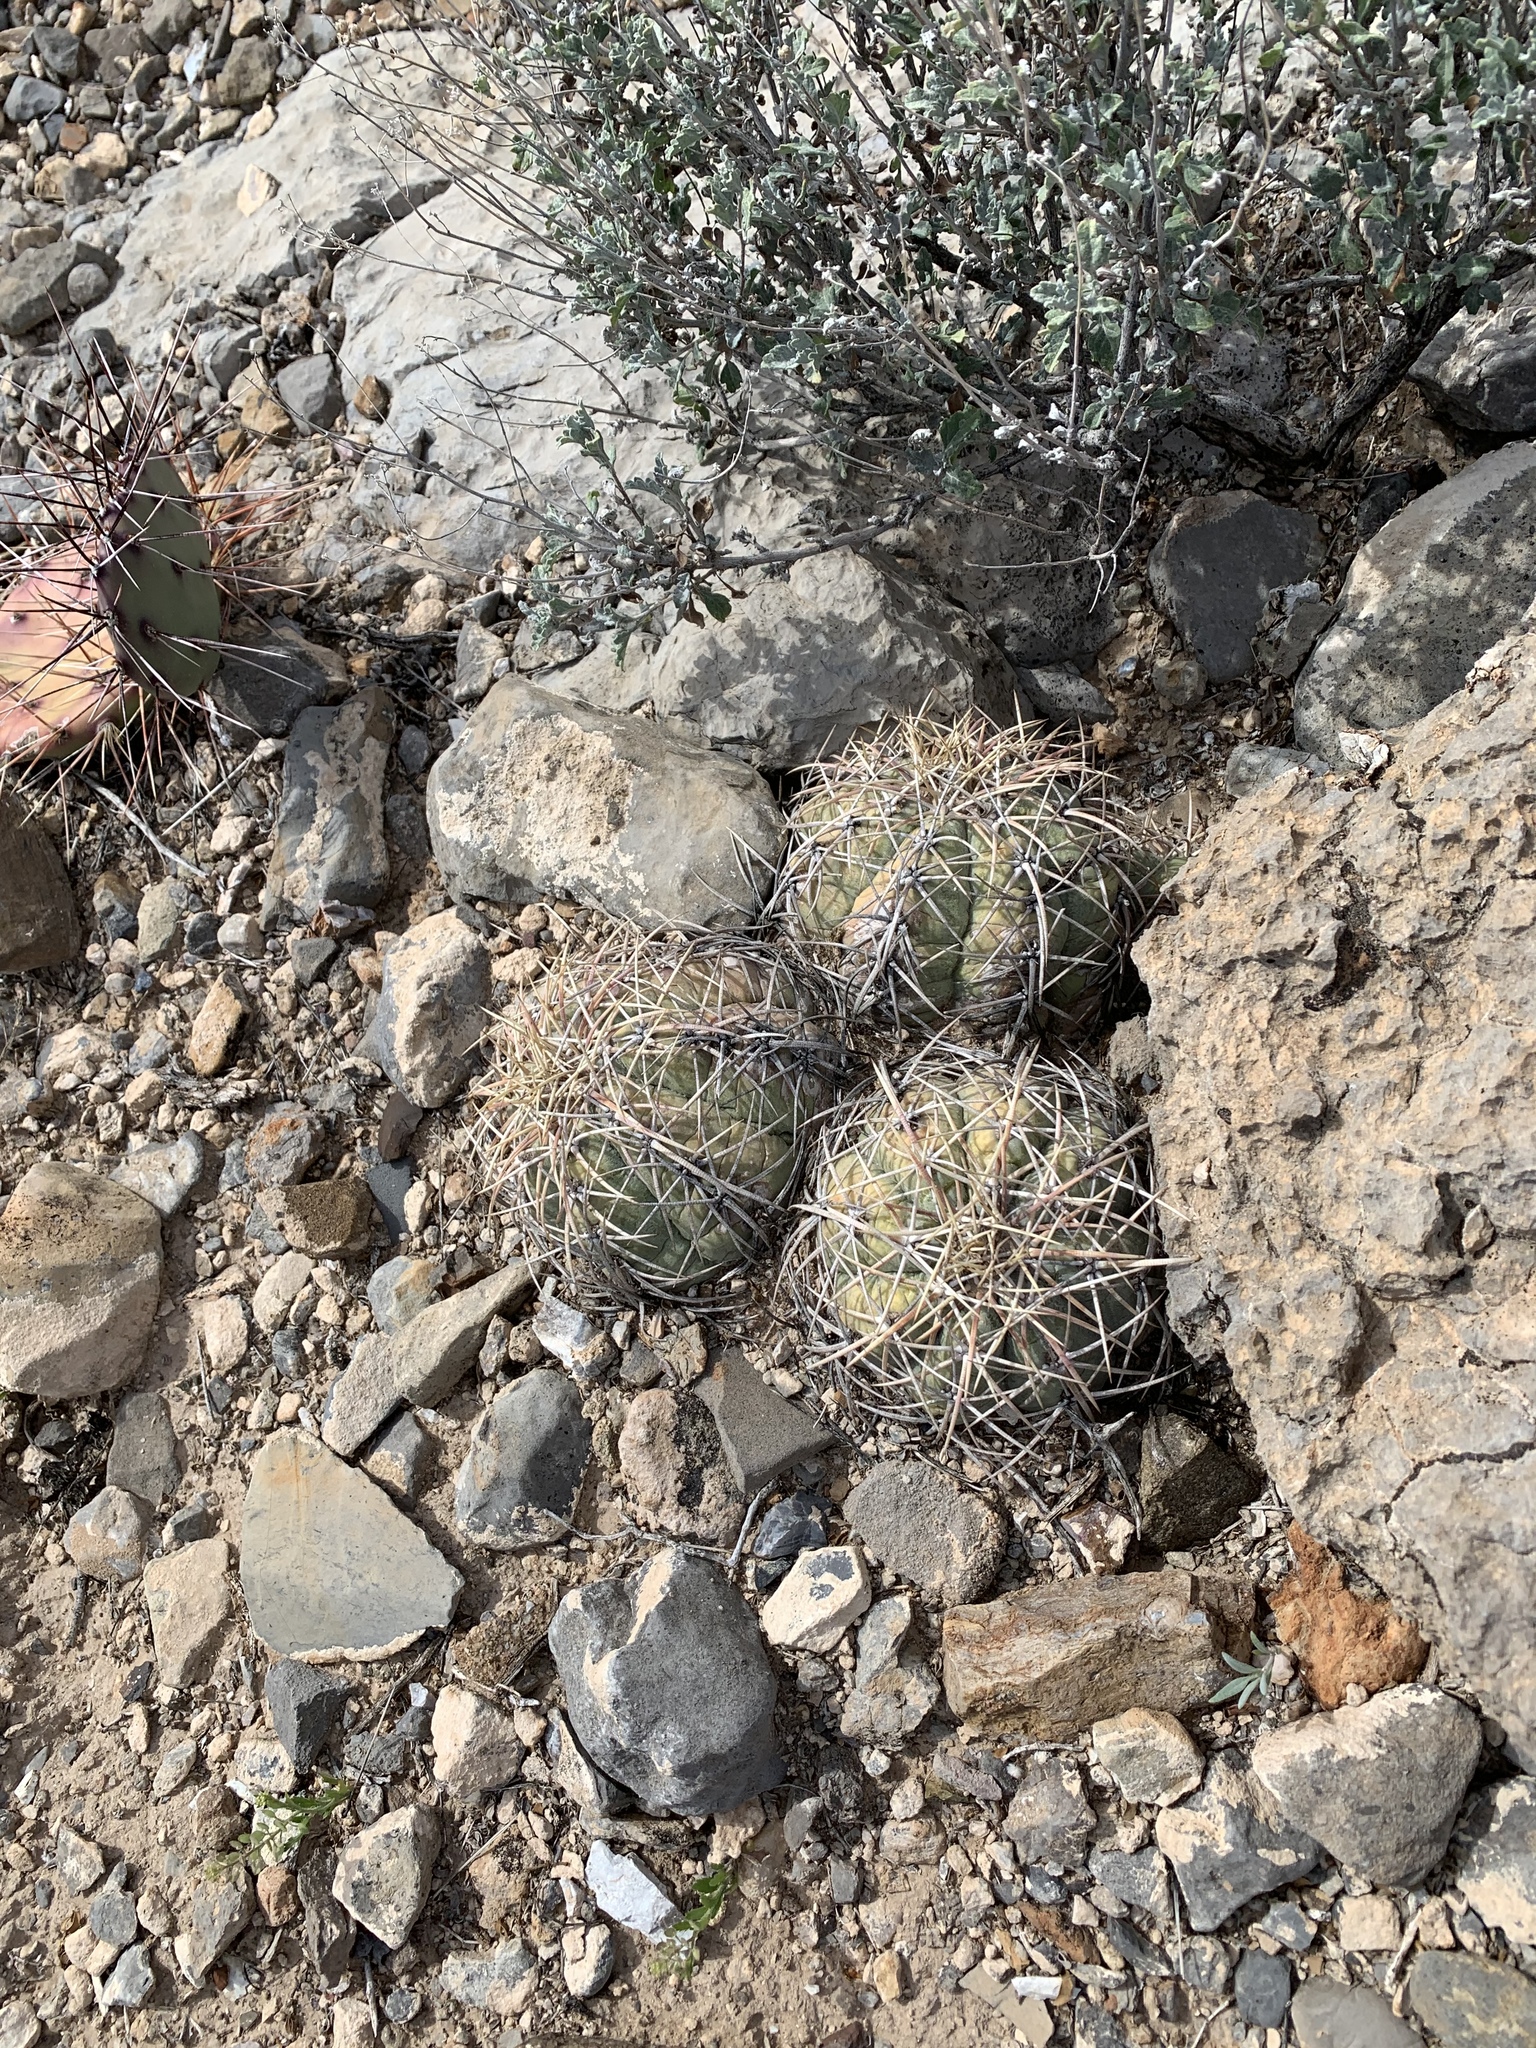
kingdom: Plantae
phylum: Tracheophyta
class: Magnoliopsida
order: Caryophyllales
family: Cactaceae
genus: Echinocactus
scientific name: Echinocactus horizonthalonius
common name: Devilshead
